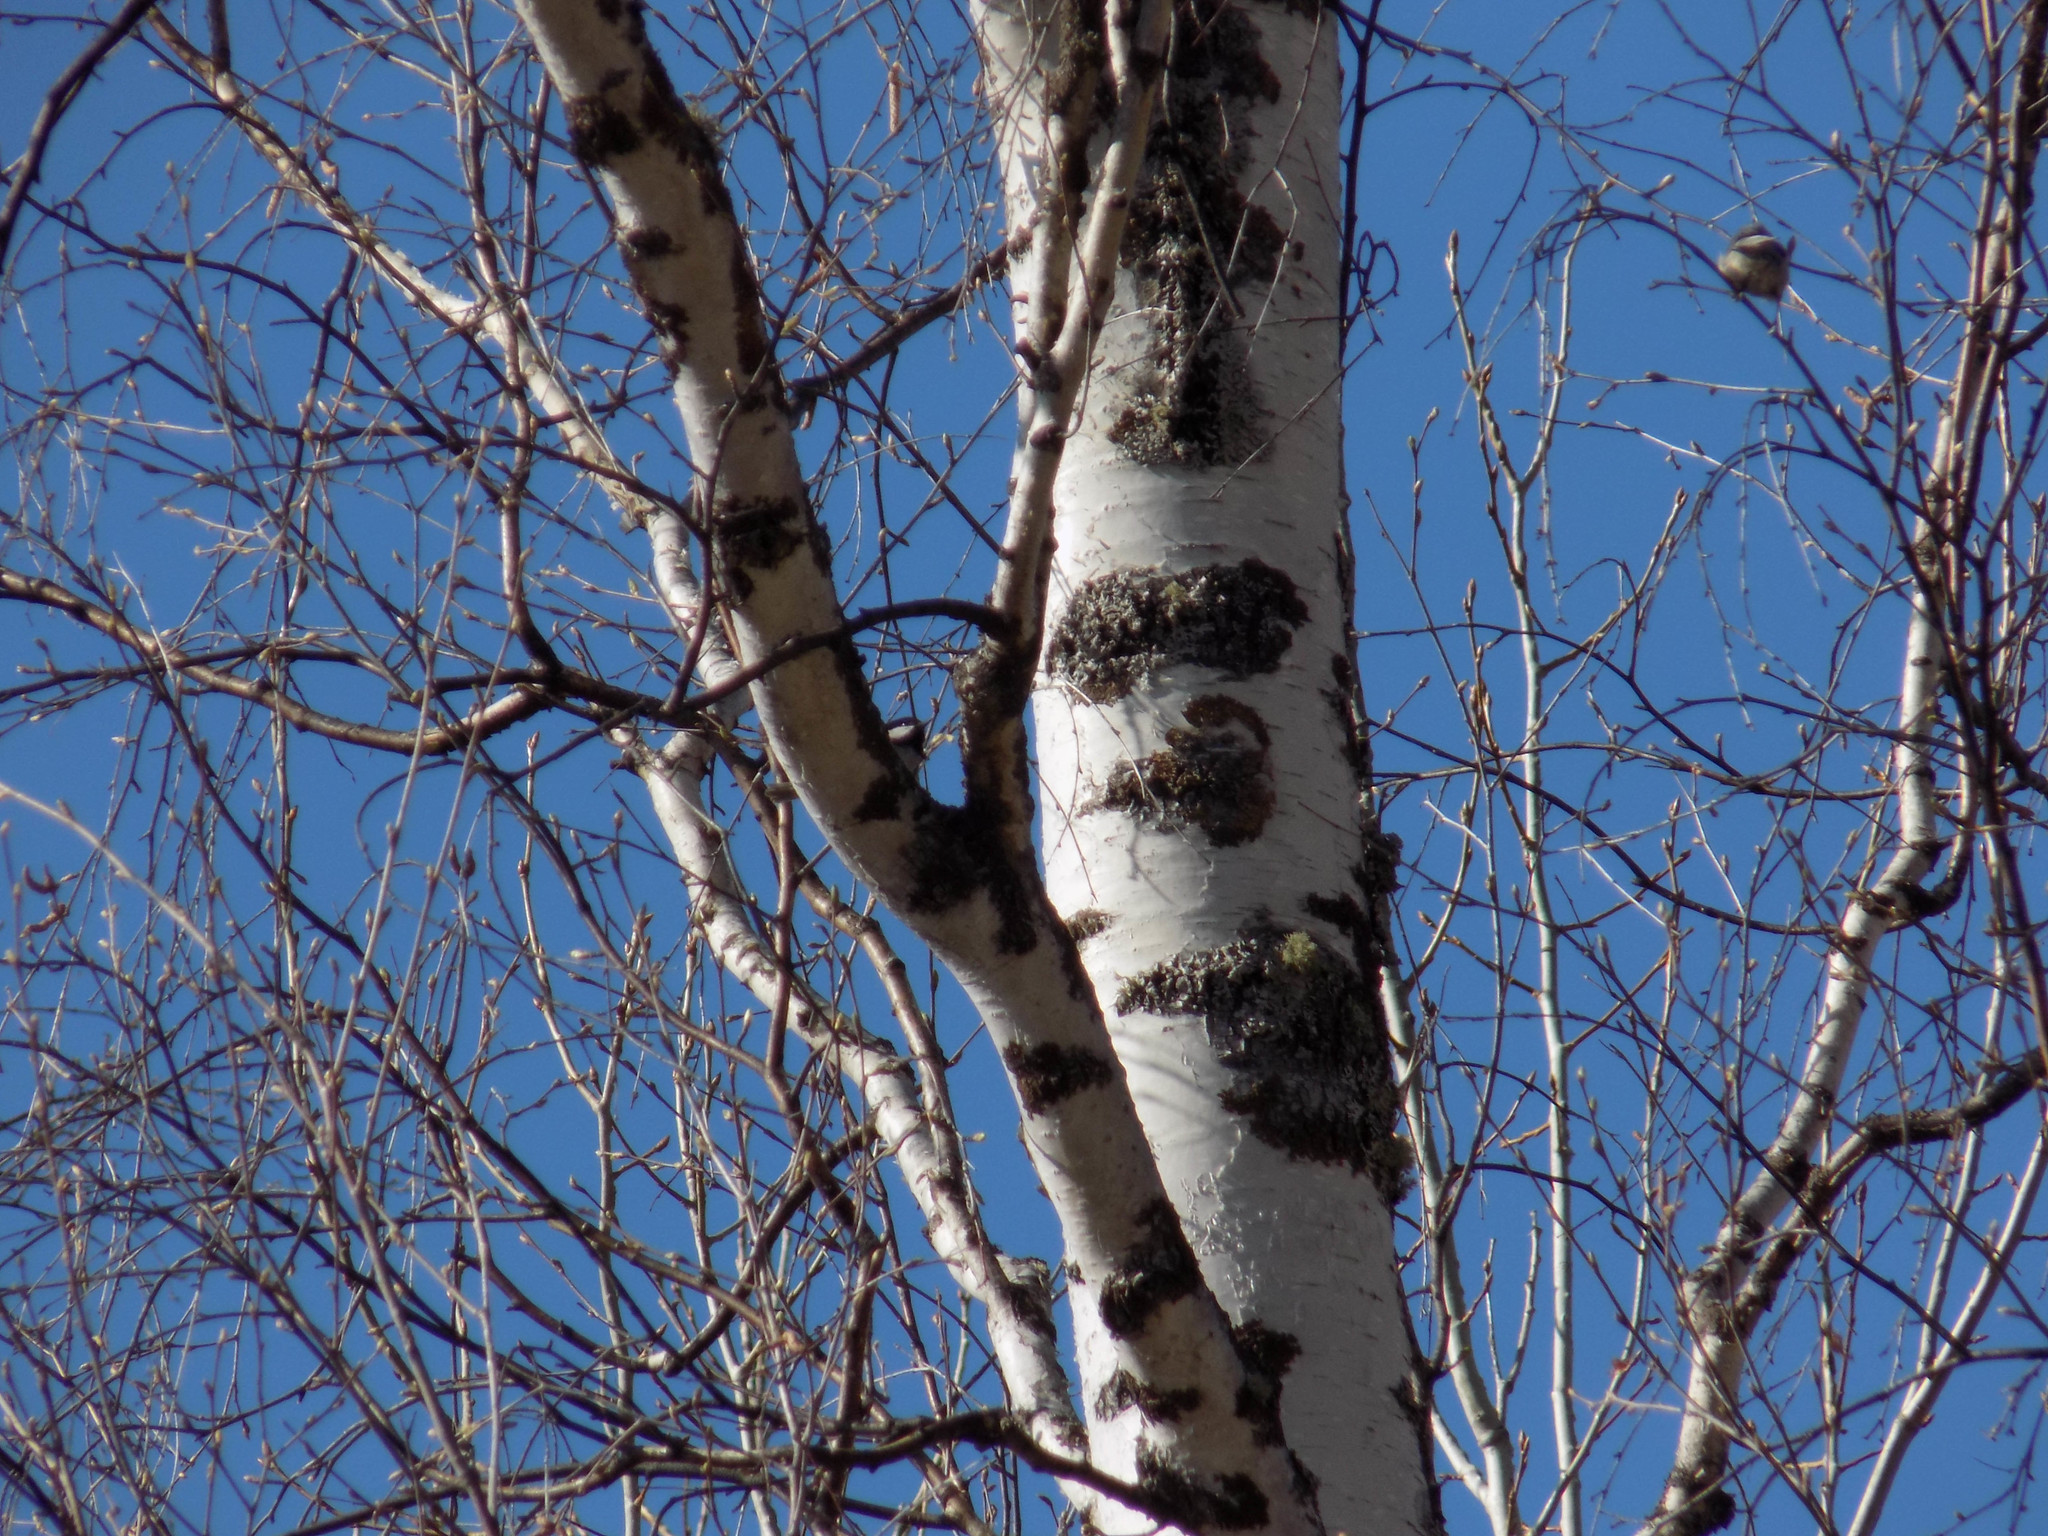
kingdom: Animalia
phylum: Chordata
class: Aves
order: Passeriformes
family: Paridae
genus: Periparus
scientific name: Periparus ater
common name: Coal tit
